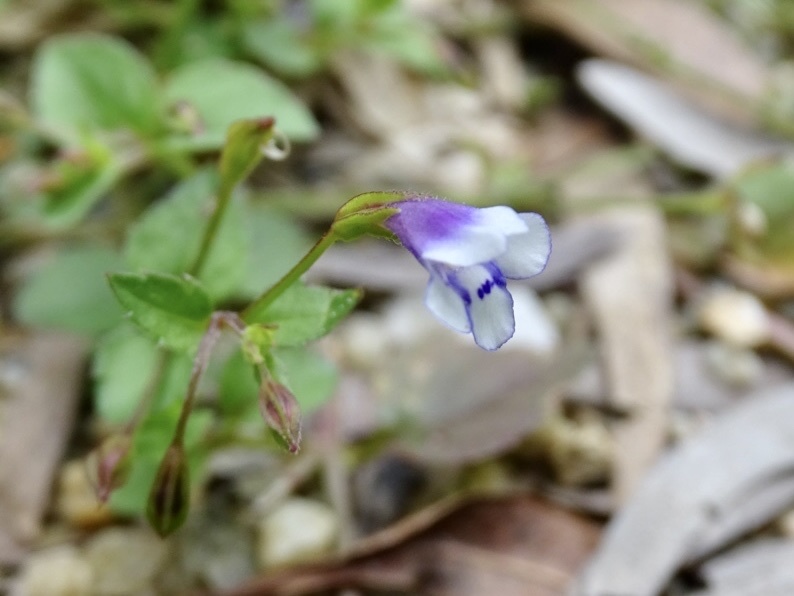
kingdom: Plantae
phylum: Tracheophyta
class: Magnoliopsida
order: Lamiales
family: Linderniaceae
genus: Torenia
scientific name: Torenia crustacea
